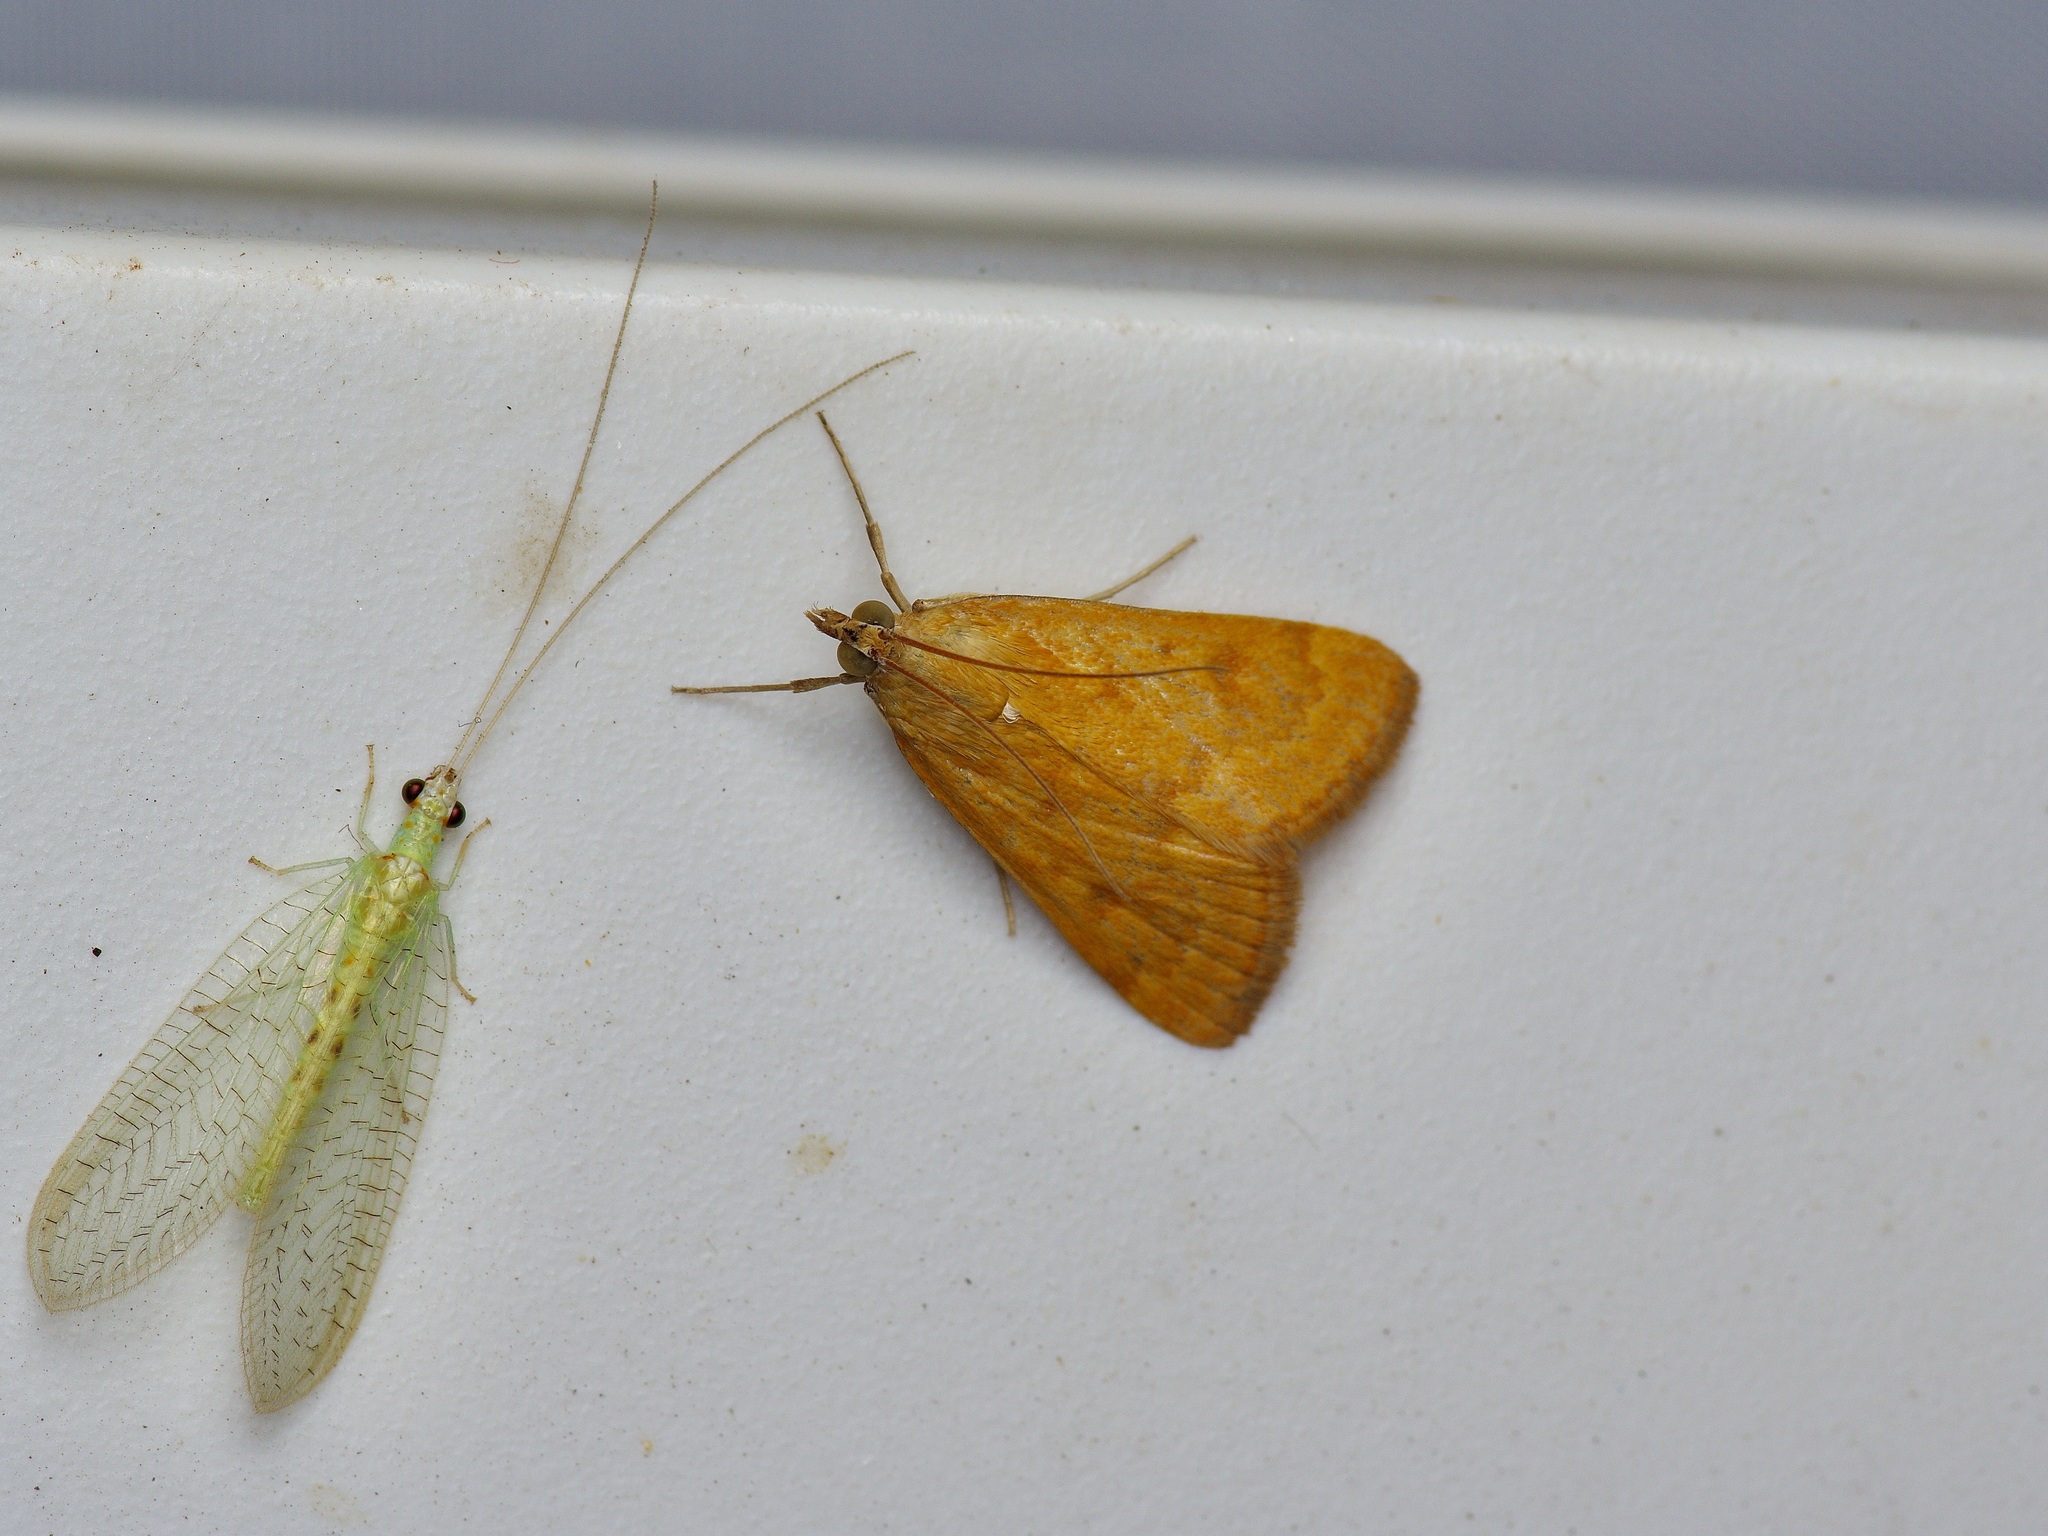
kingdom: Animalia
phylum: Arthropoda
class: Insecta
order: Lepidoptera
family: Crambidae
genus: Achyra
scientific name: Achyra rantalis
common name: Garden webworm
